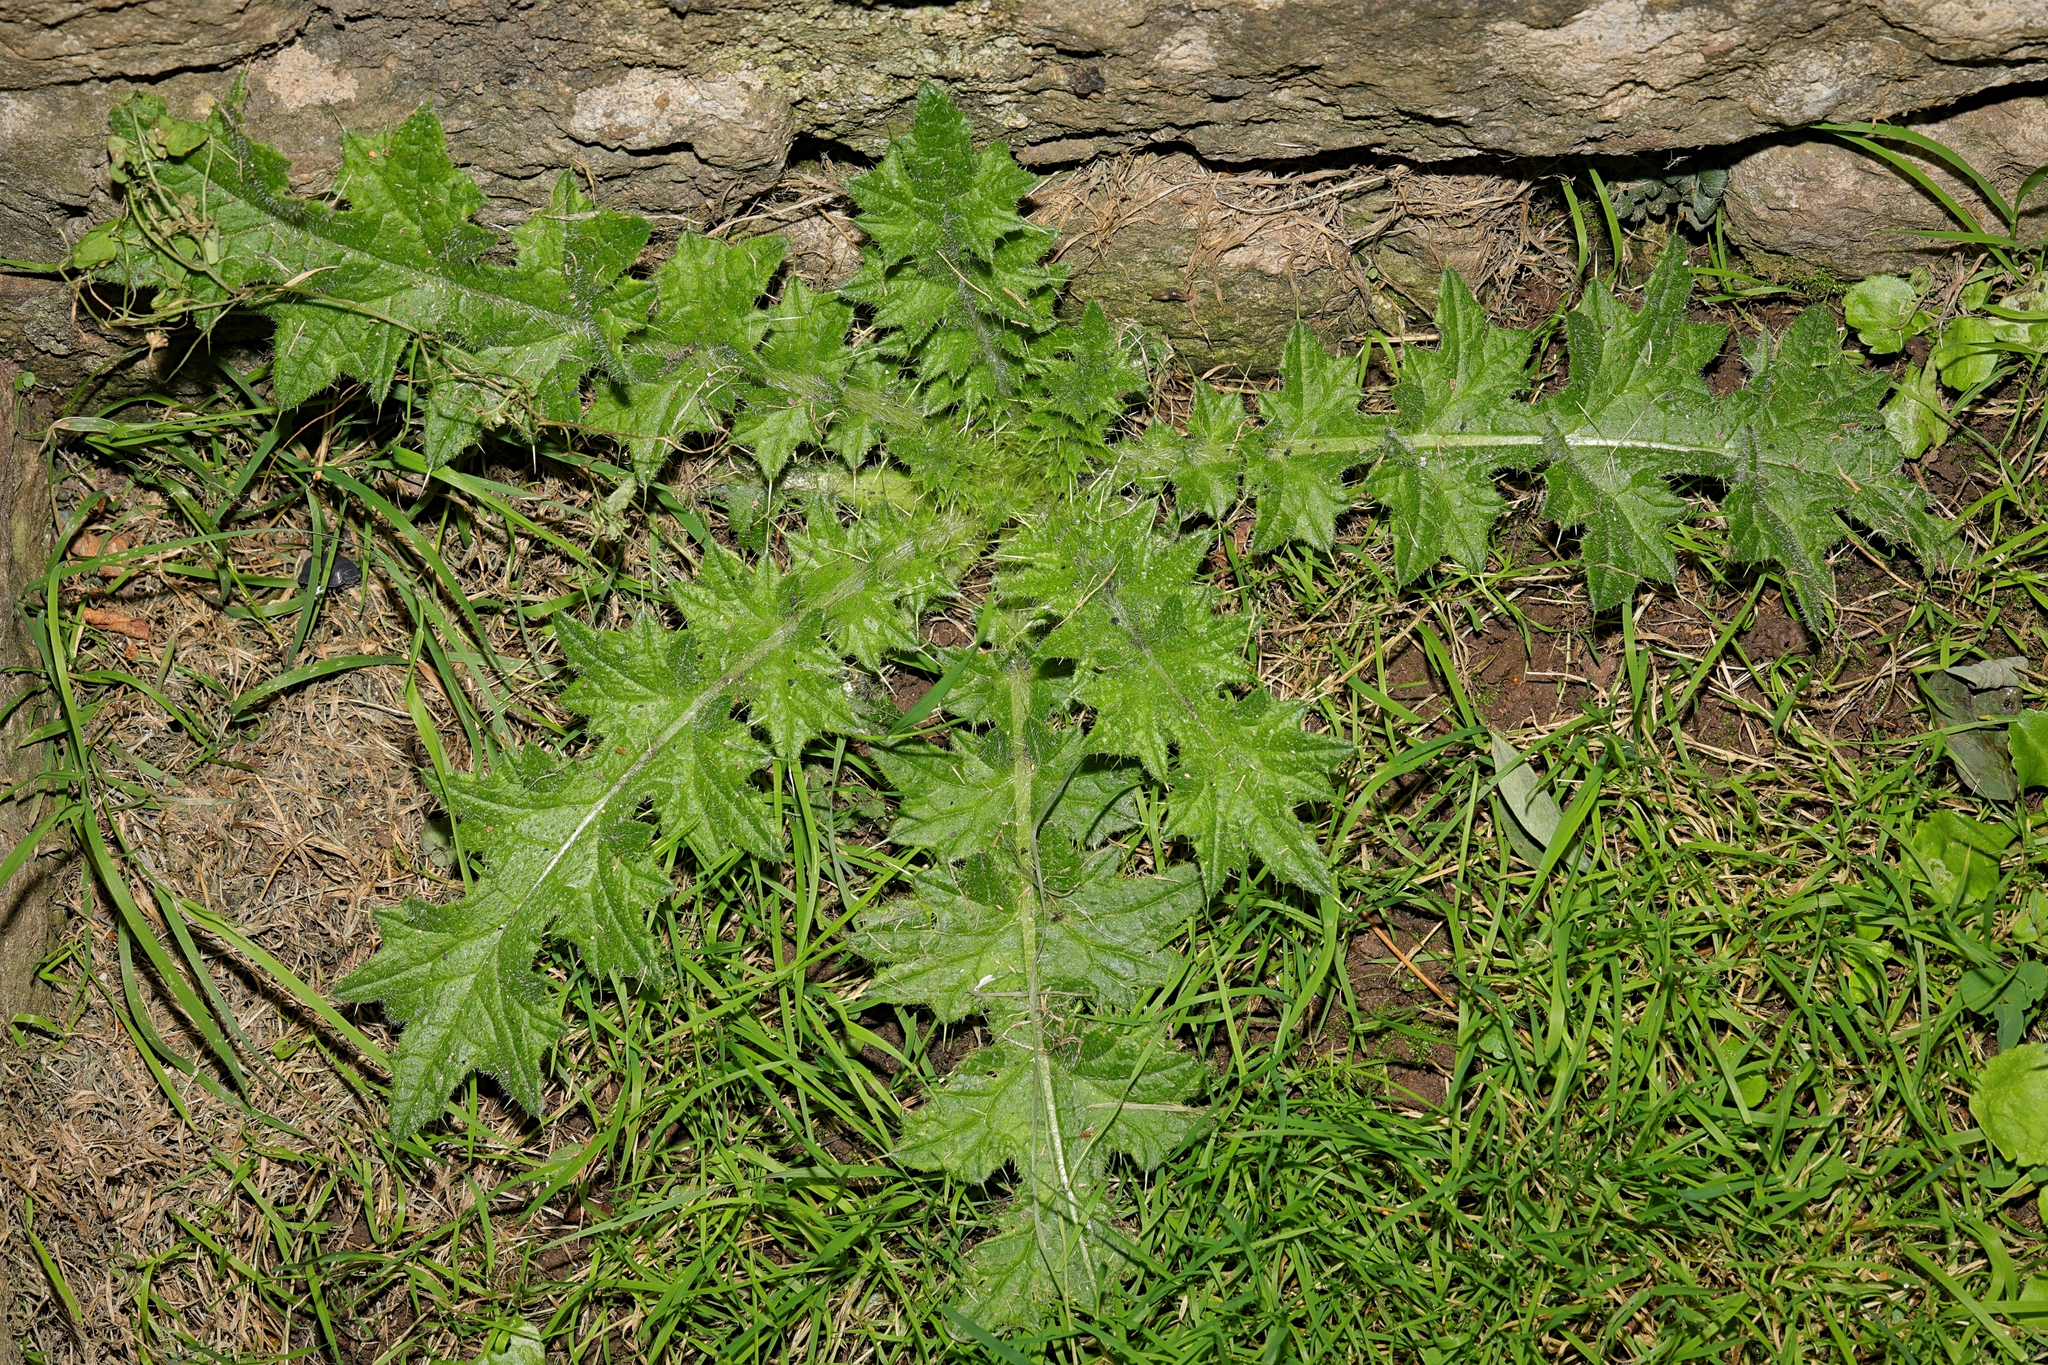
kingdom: Plantae
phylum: Tracheophyta
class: Magnoliopsida
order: Asterales
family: Asteraceae
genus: Cirsium
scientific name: Cirsium vulgare
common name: Bull thistle
